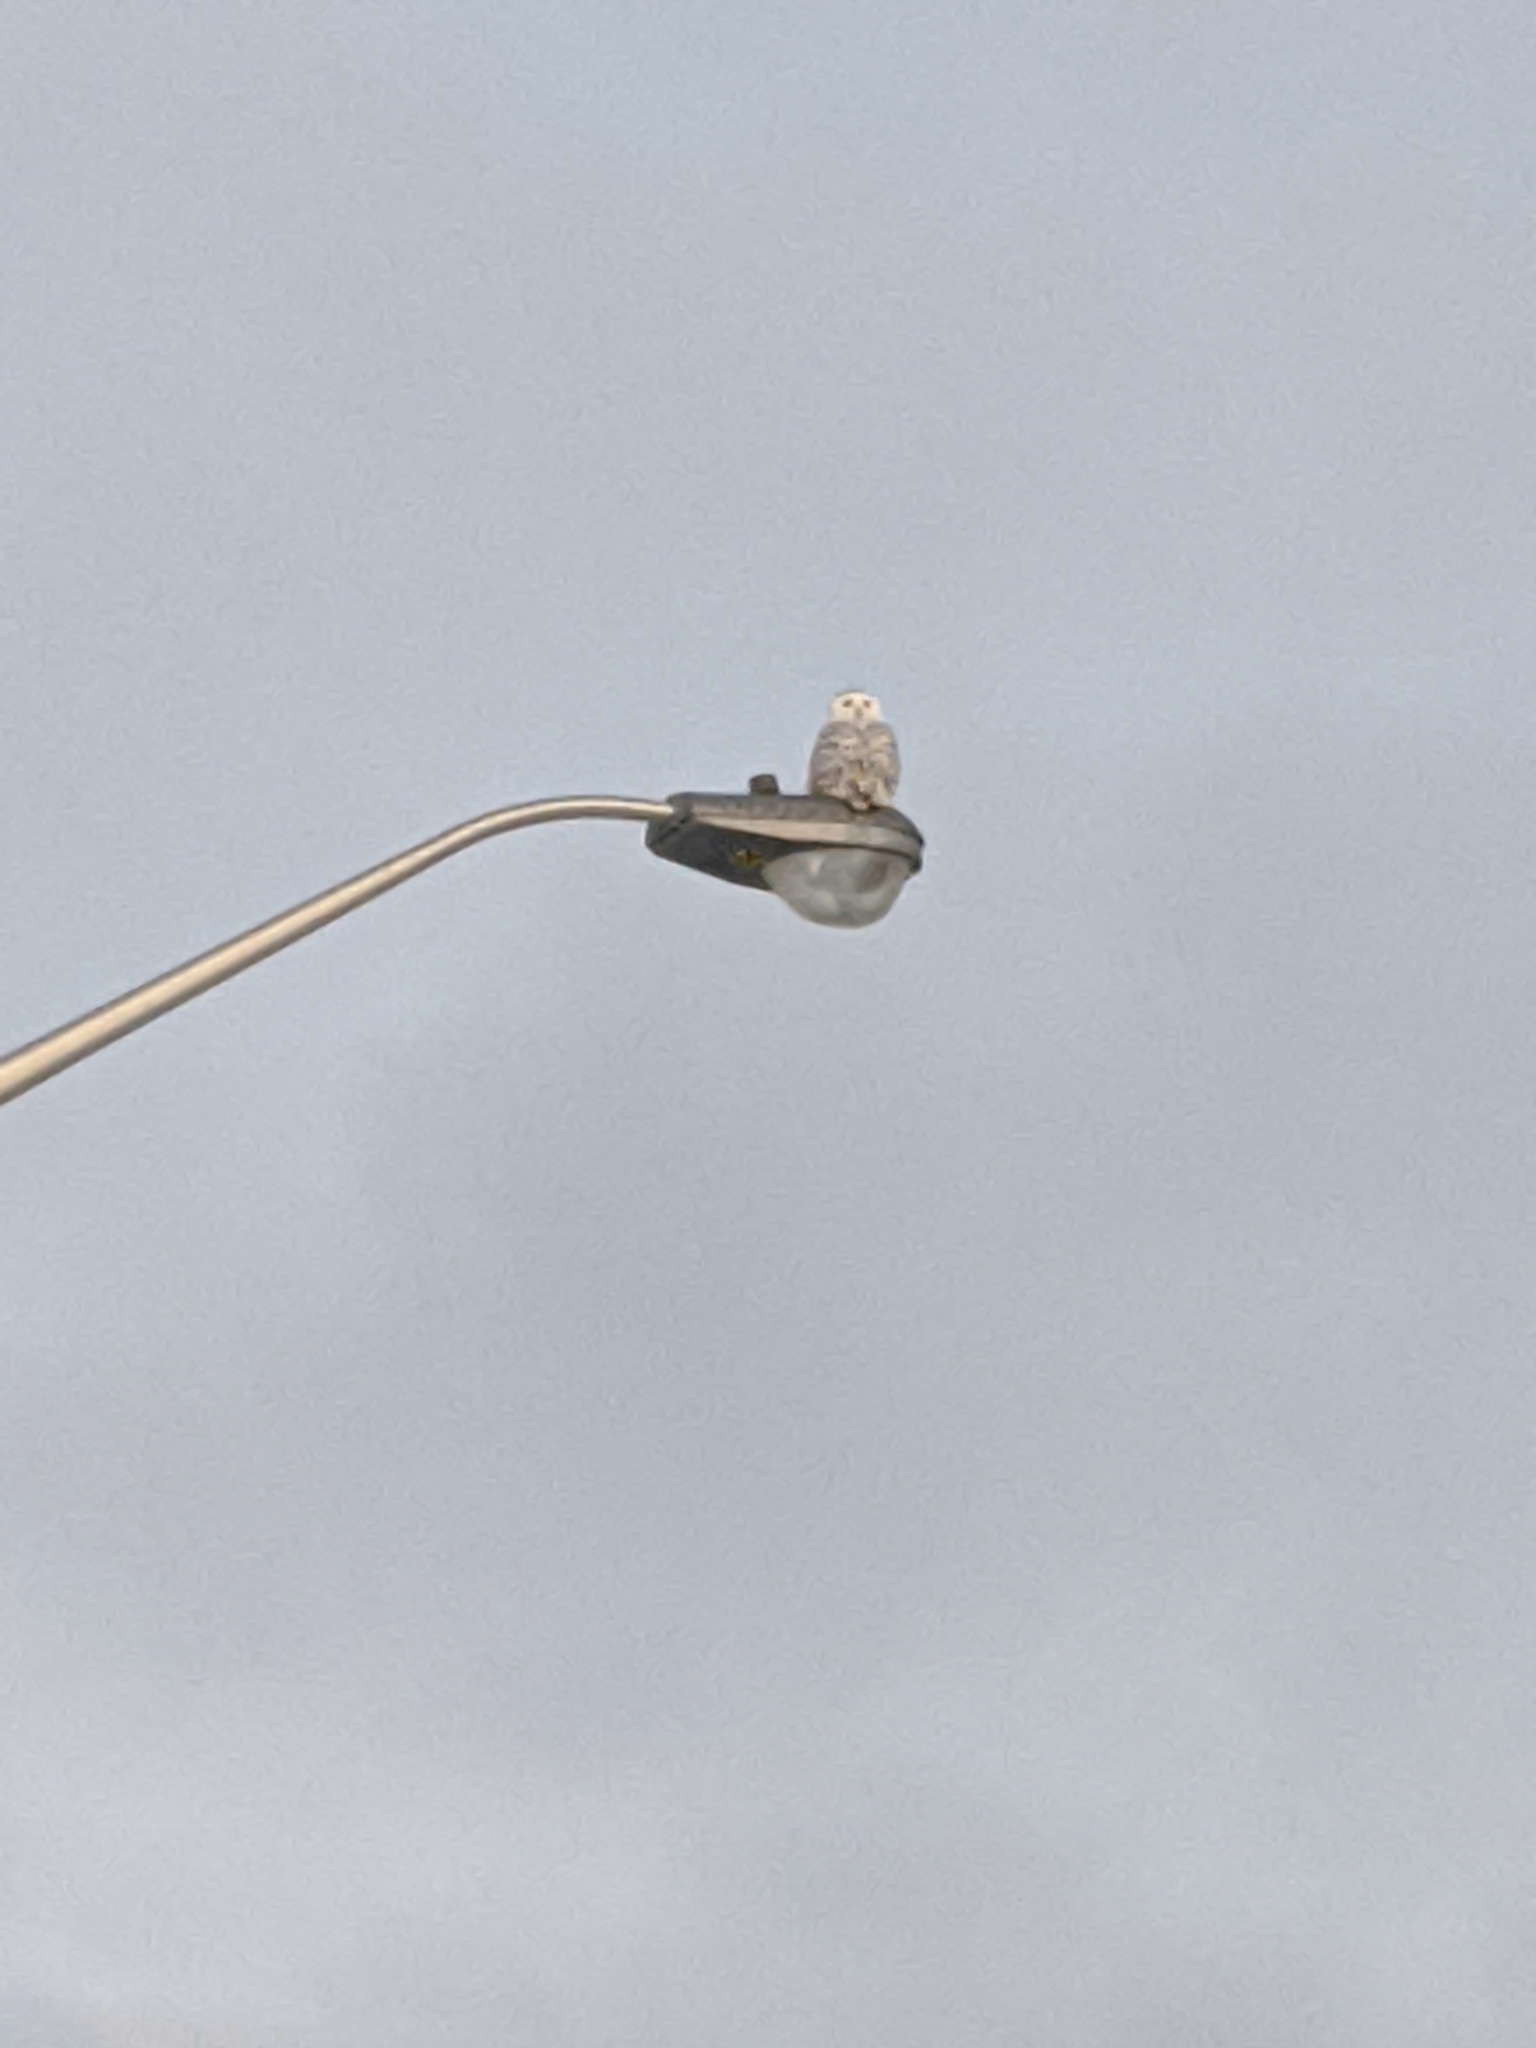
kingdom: Animalia
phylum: Chordata
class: Aves
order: Strigiformes
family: Strigidae
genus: Bubo
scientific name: Bubo scandiacus
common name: Snowy owl
